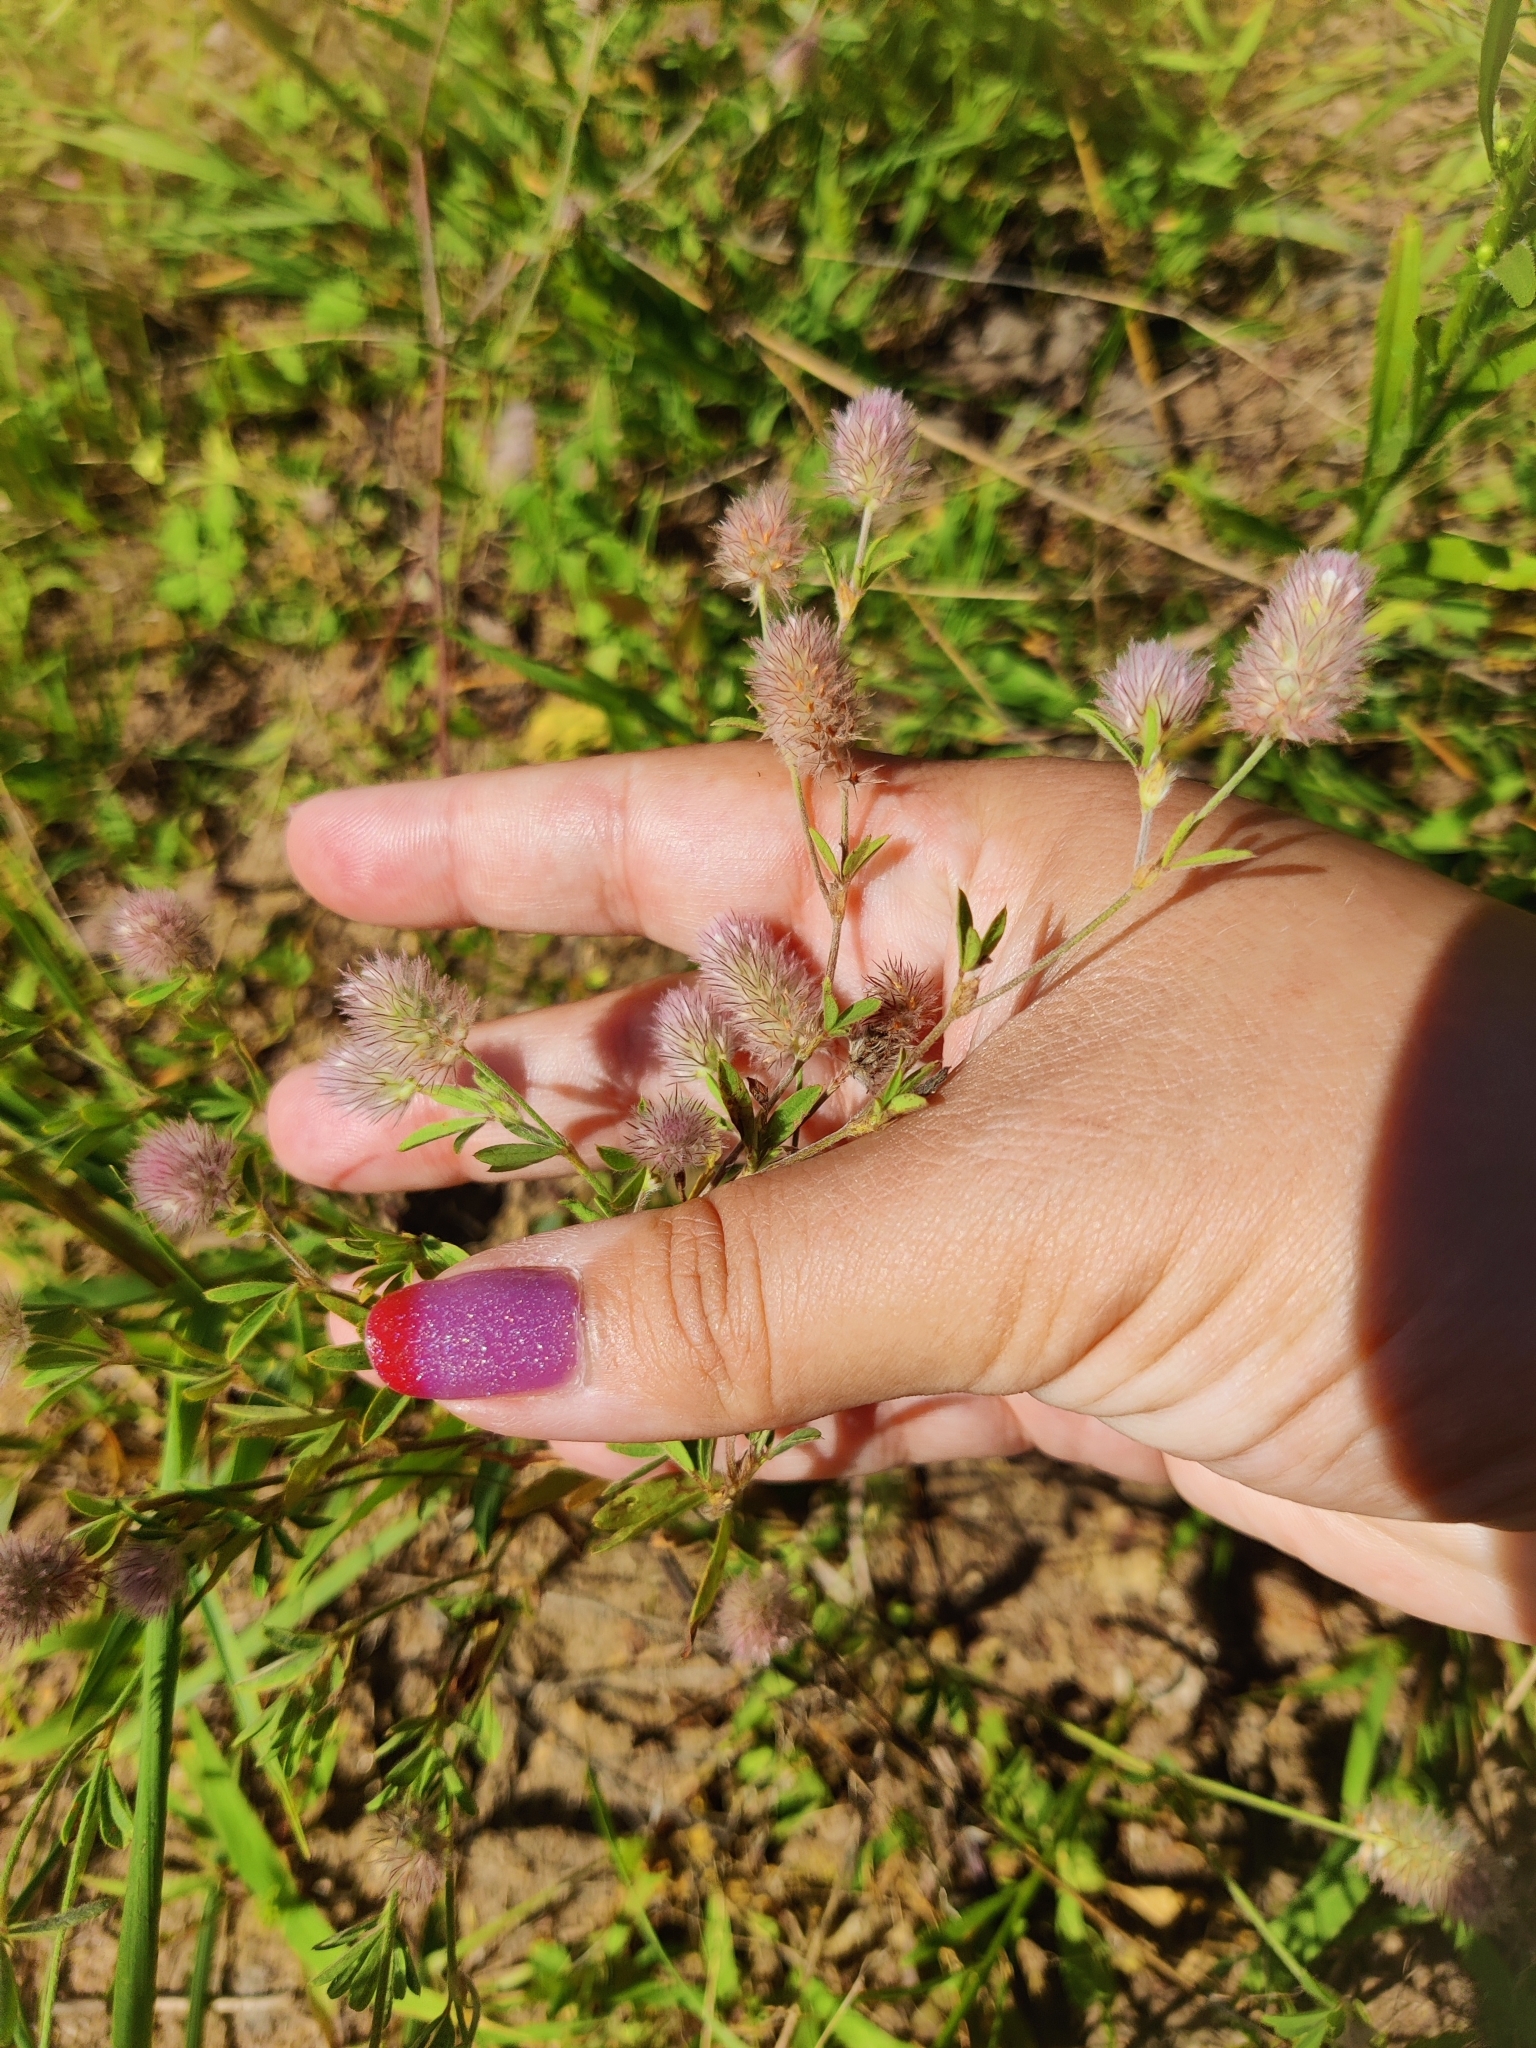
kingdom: Plantae
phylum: Tracheophyta
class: Magnoliopsida
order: Fabales
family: Fabaceae
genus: Trifolium
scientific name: Trifolium arvense
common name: Hare's-foot clover
